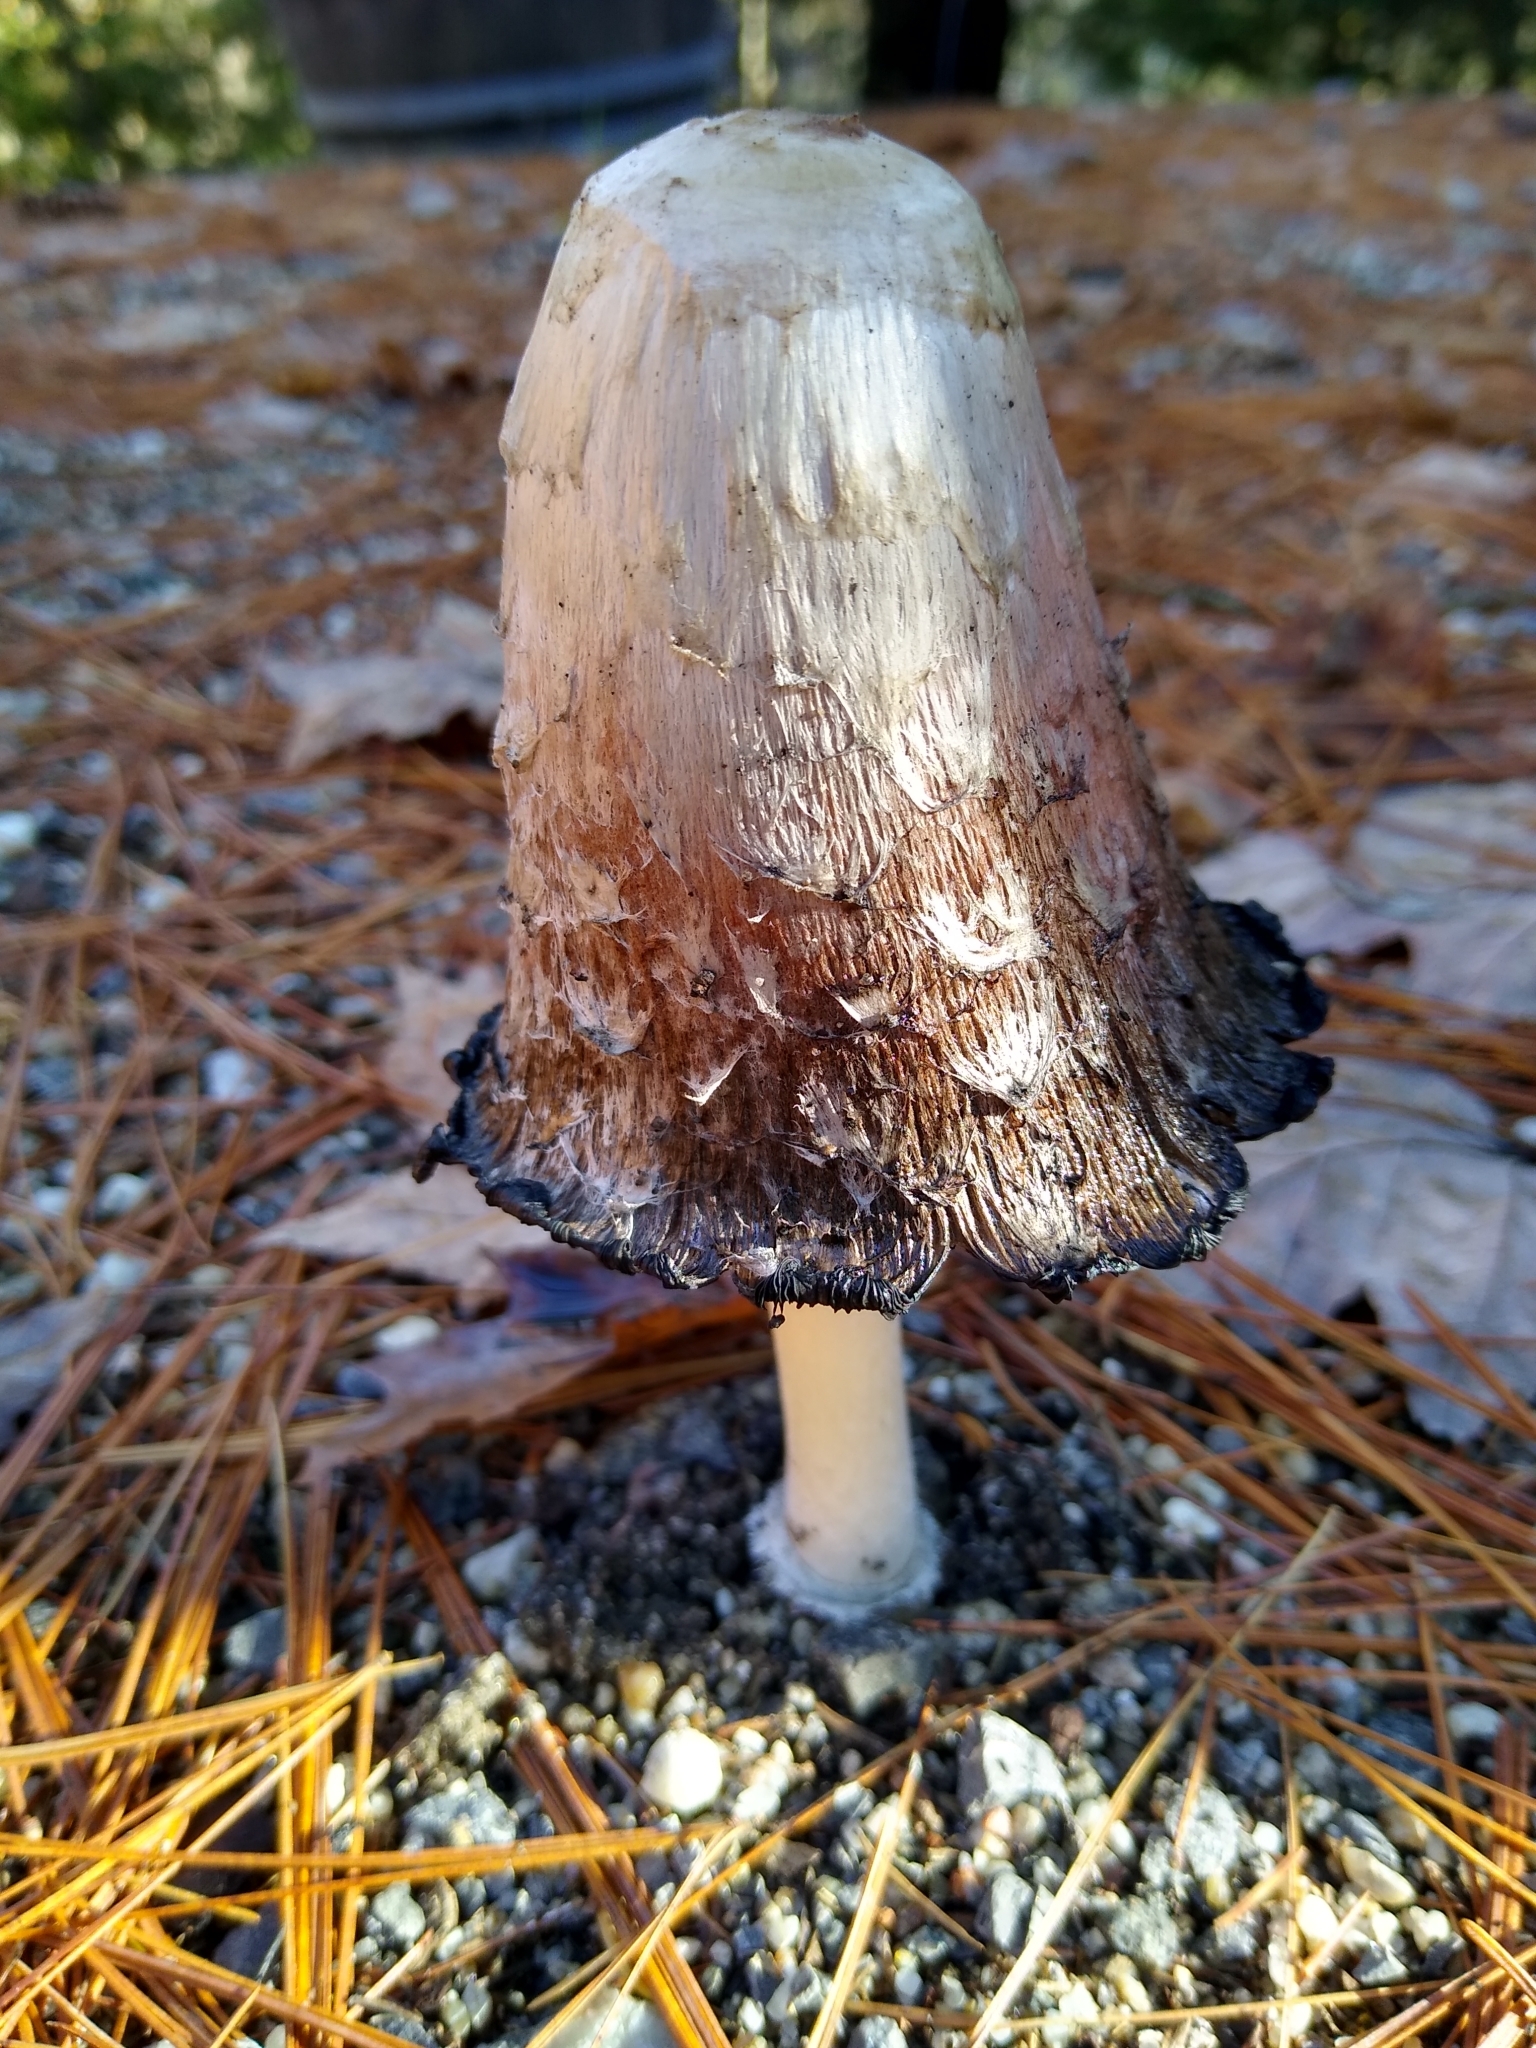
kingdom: Fungi
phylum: Basidiomycota
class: Agaricomycetes
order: Agaricales
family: Agaricaceae
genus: Coprinus
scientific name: Coprinus comatus
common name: Lawyer's wig
